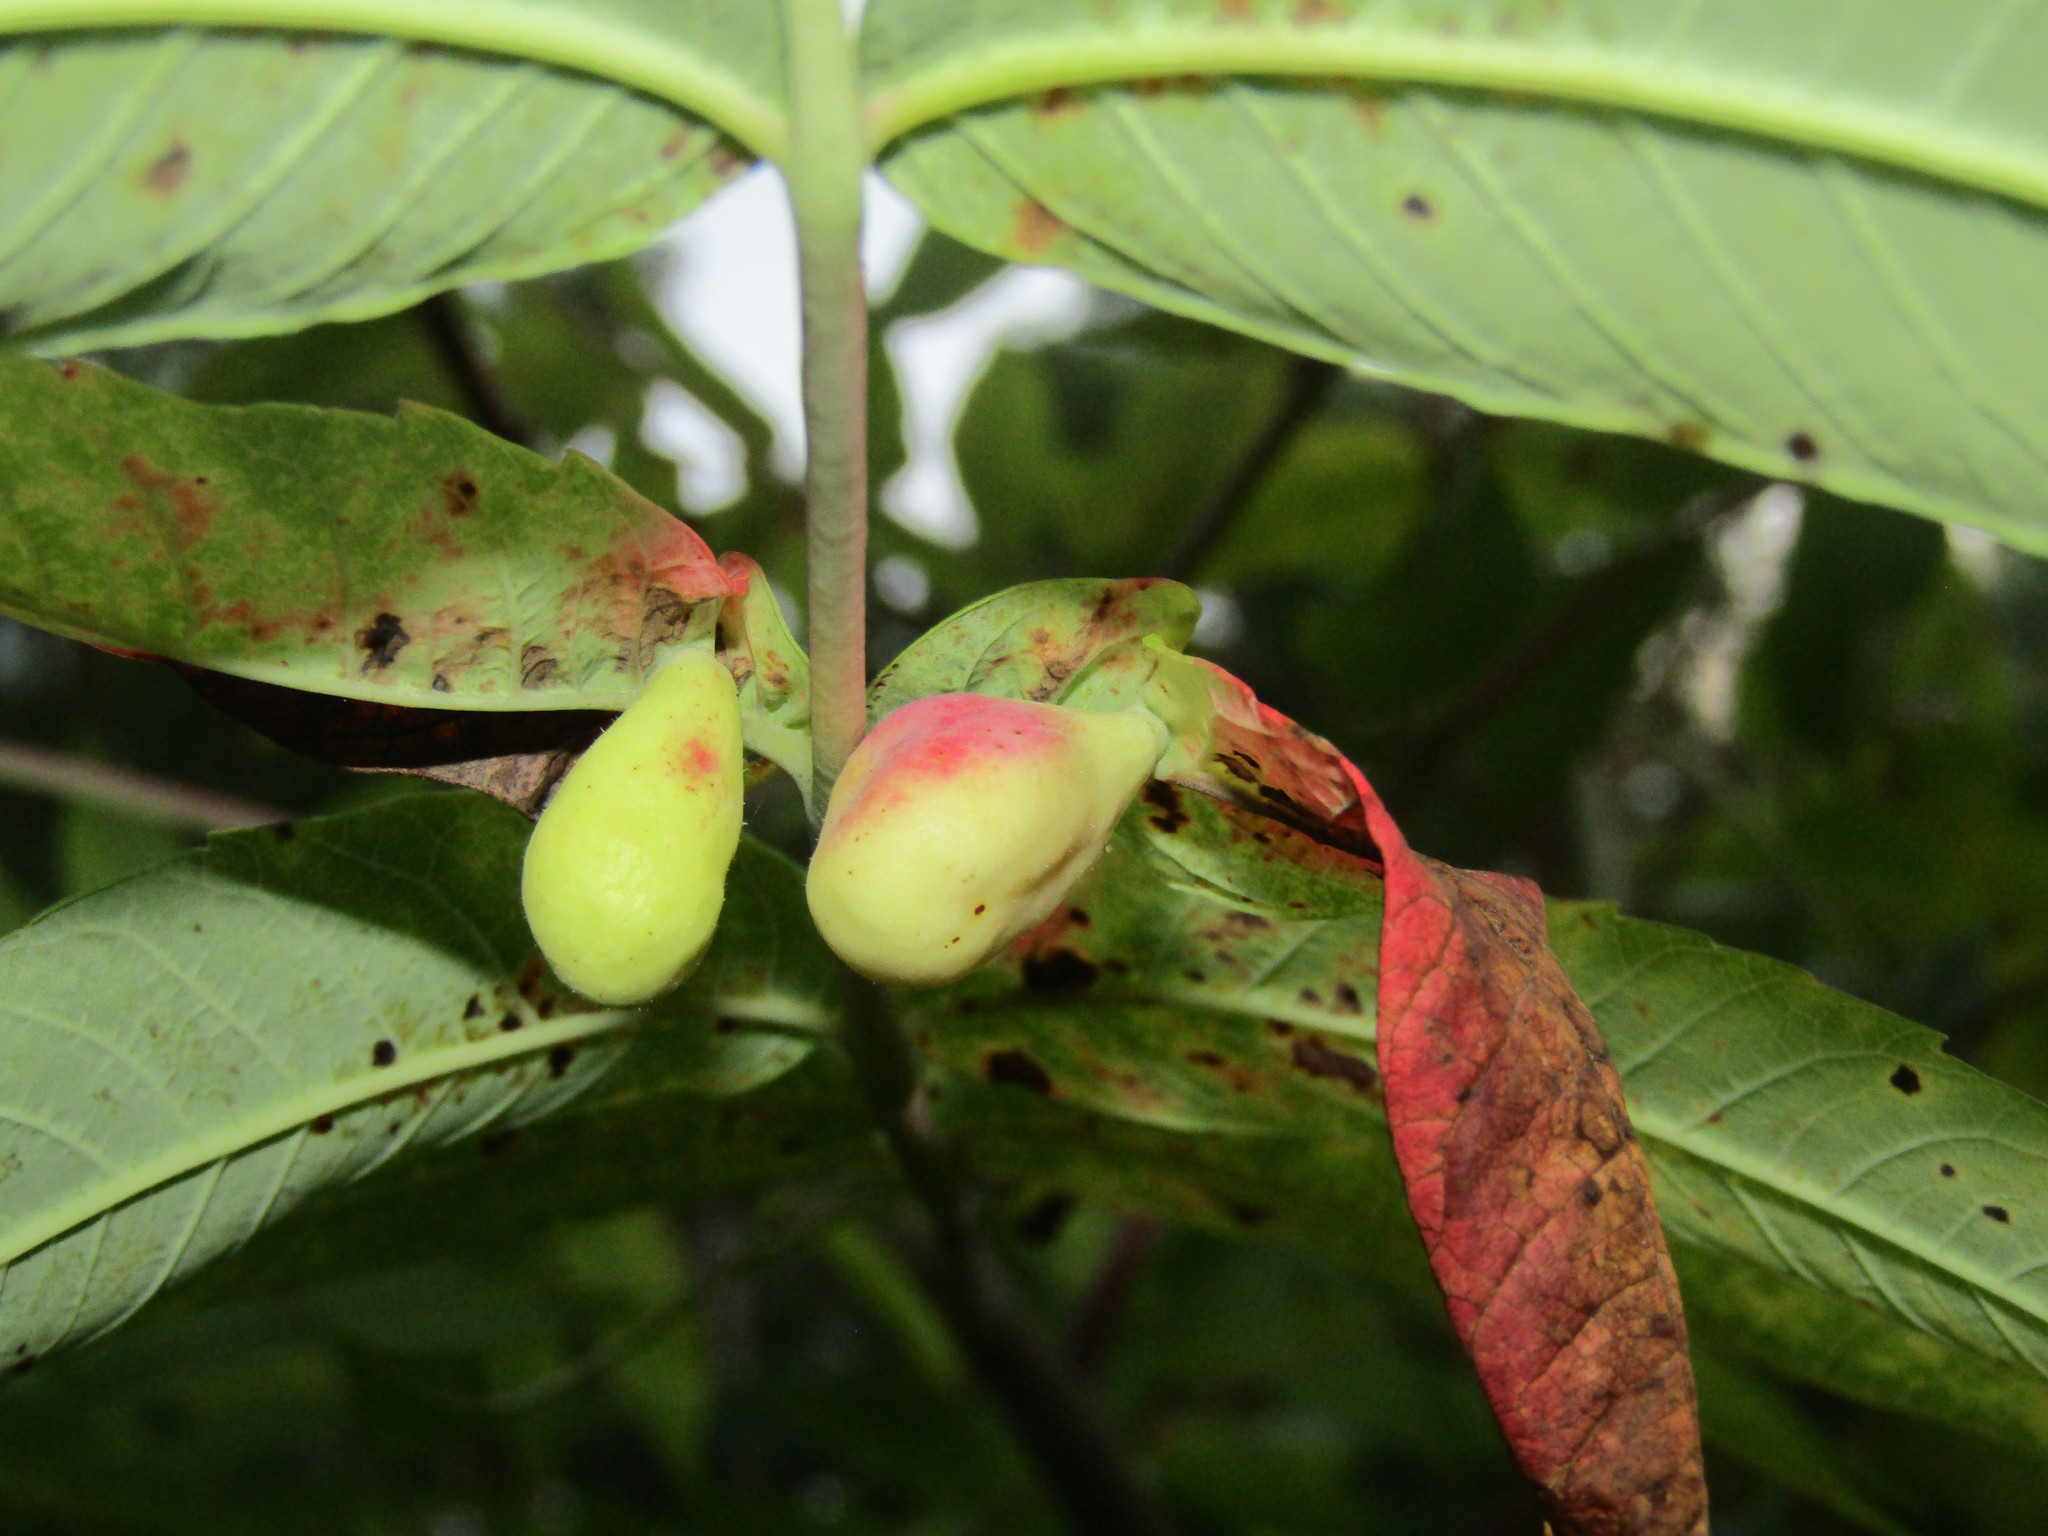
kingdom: Animalia
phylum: Arthropoda
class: Insecta
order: Hemiptera
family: Aphididae
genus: Melaphis
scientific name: Melaphis rhois
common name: Sumac gall aphid
